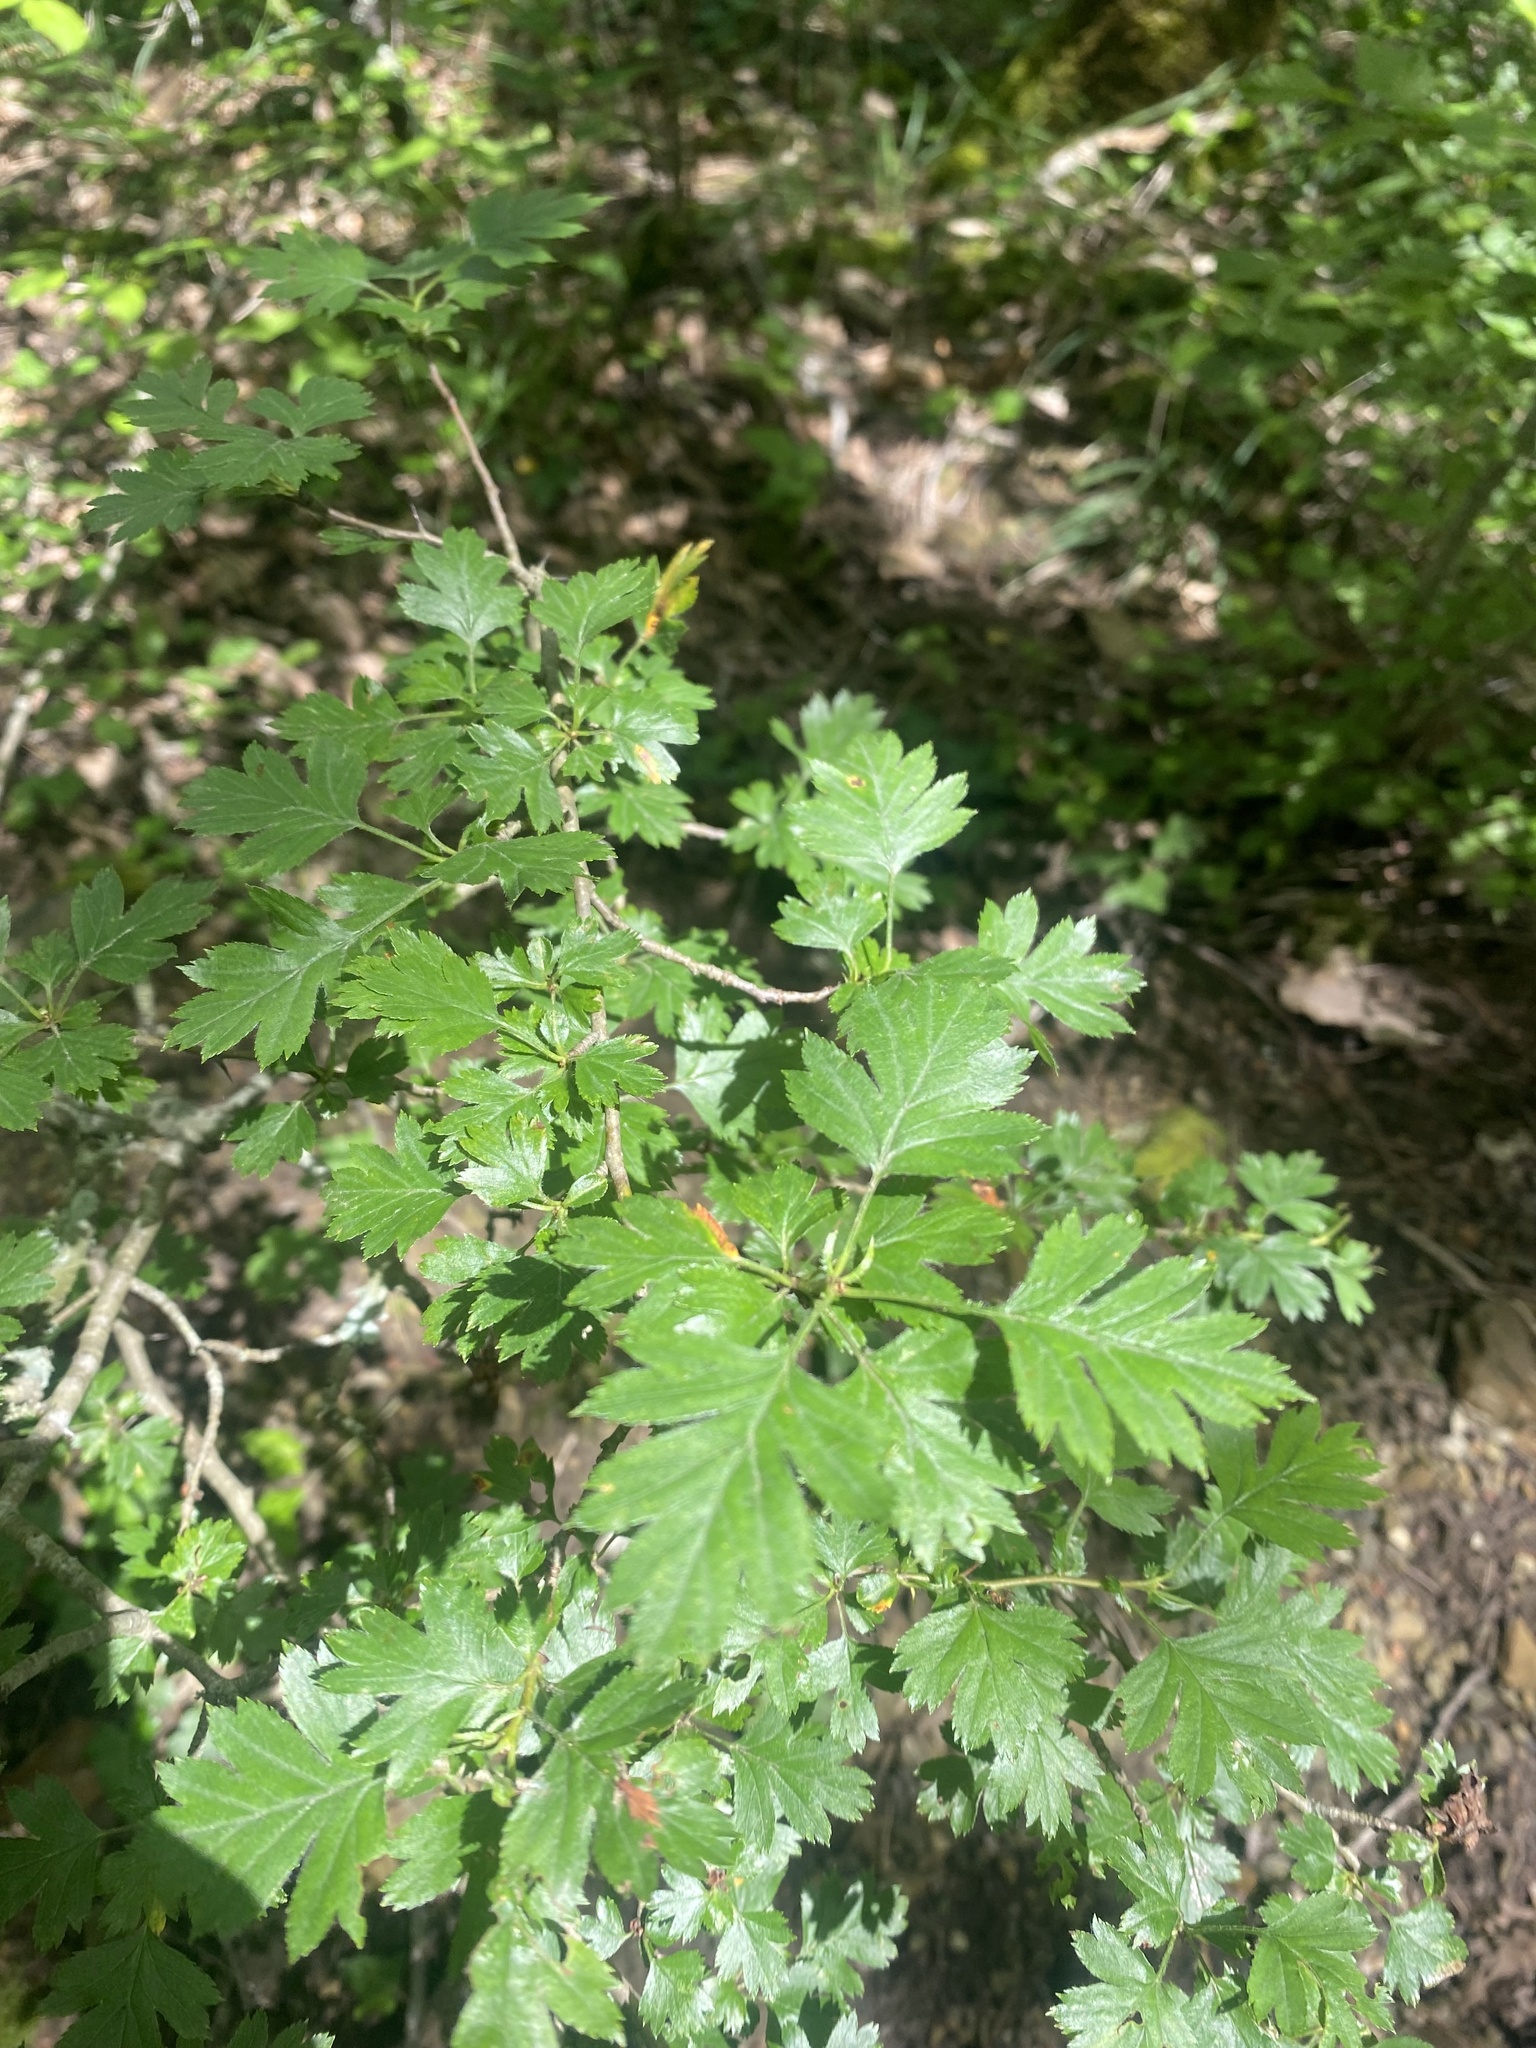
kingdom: Plantae
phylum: Tracheophyta
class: Magnoliopsida
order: Rosales
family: Rosaceae
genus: Crataegus
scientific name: Crataegus monogyna
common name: Hawthorn
